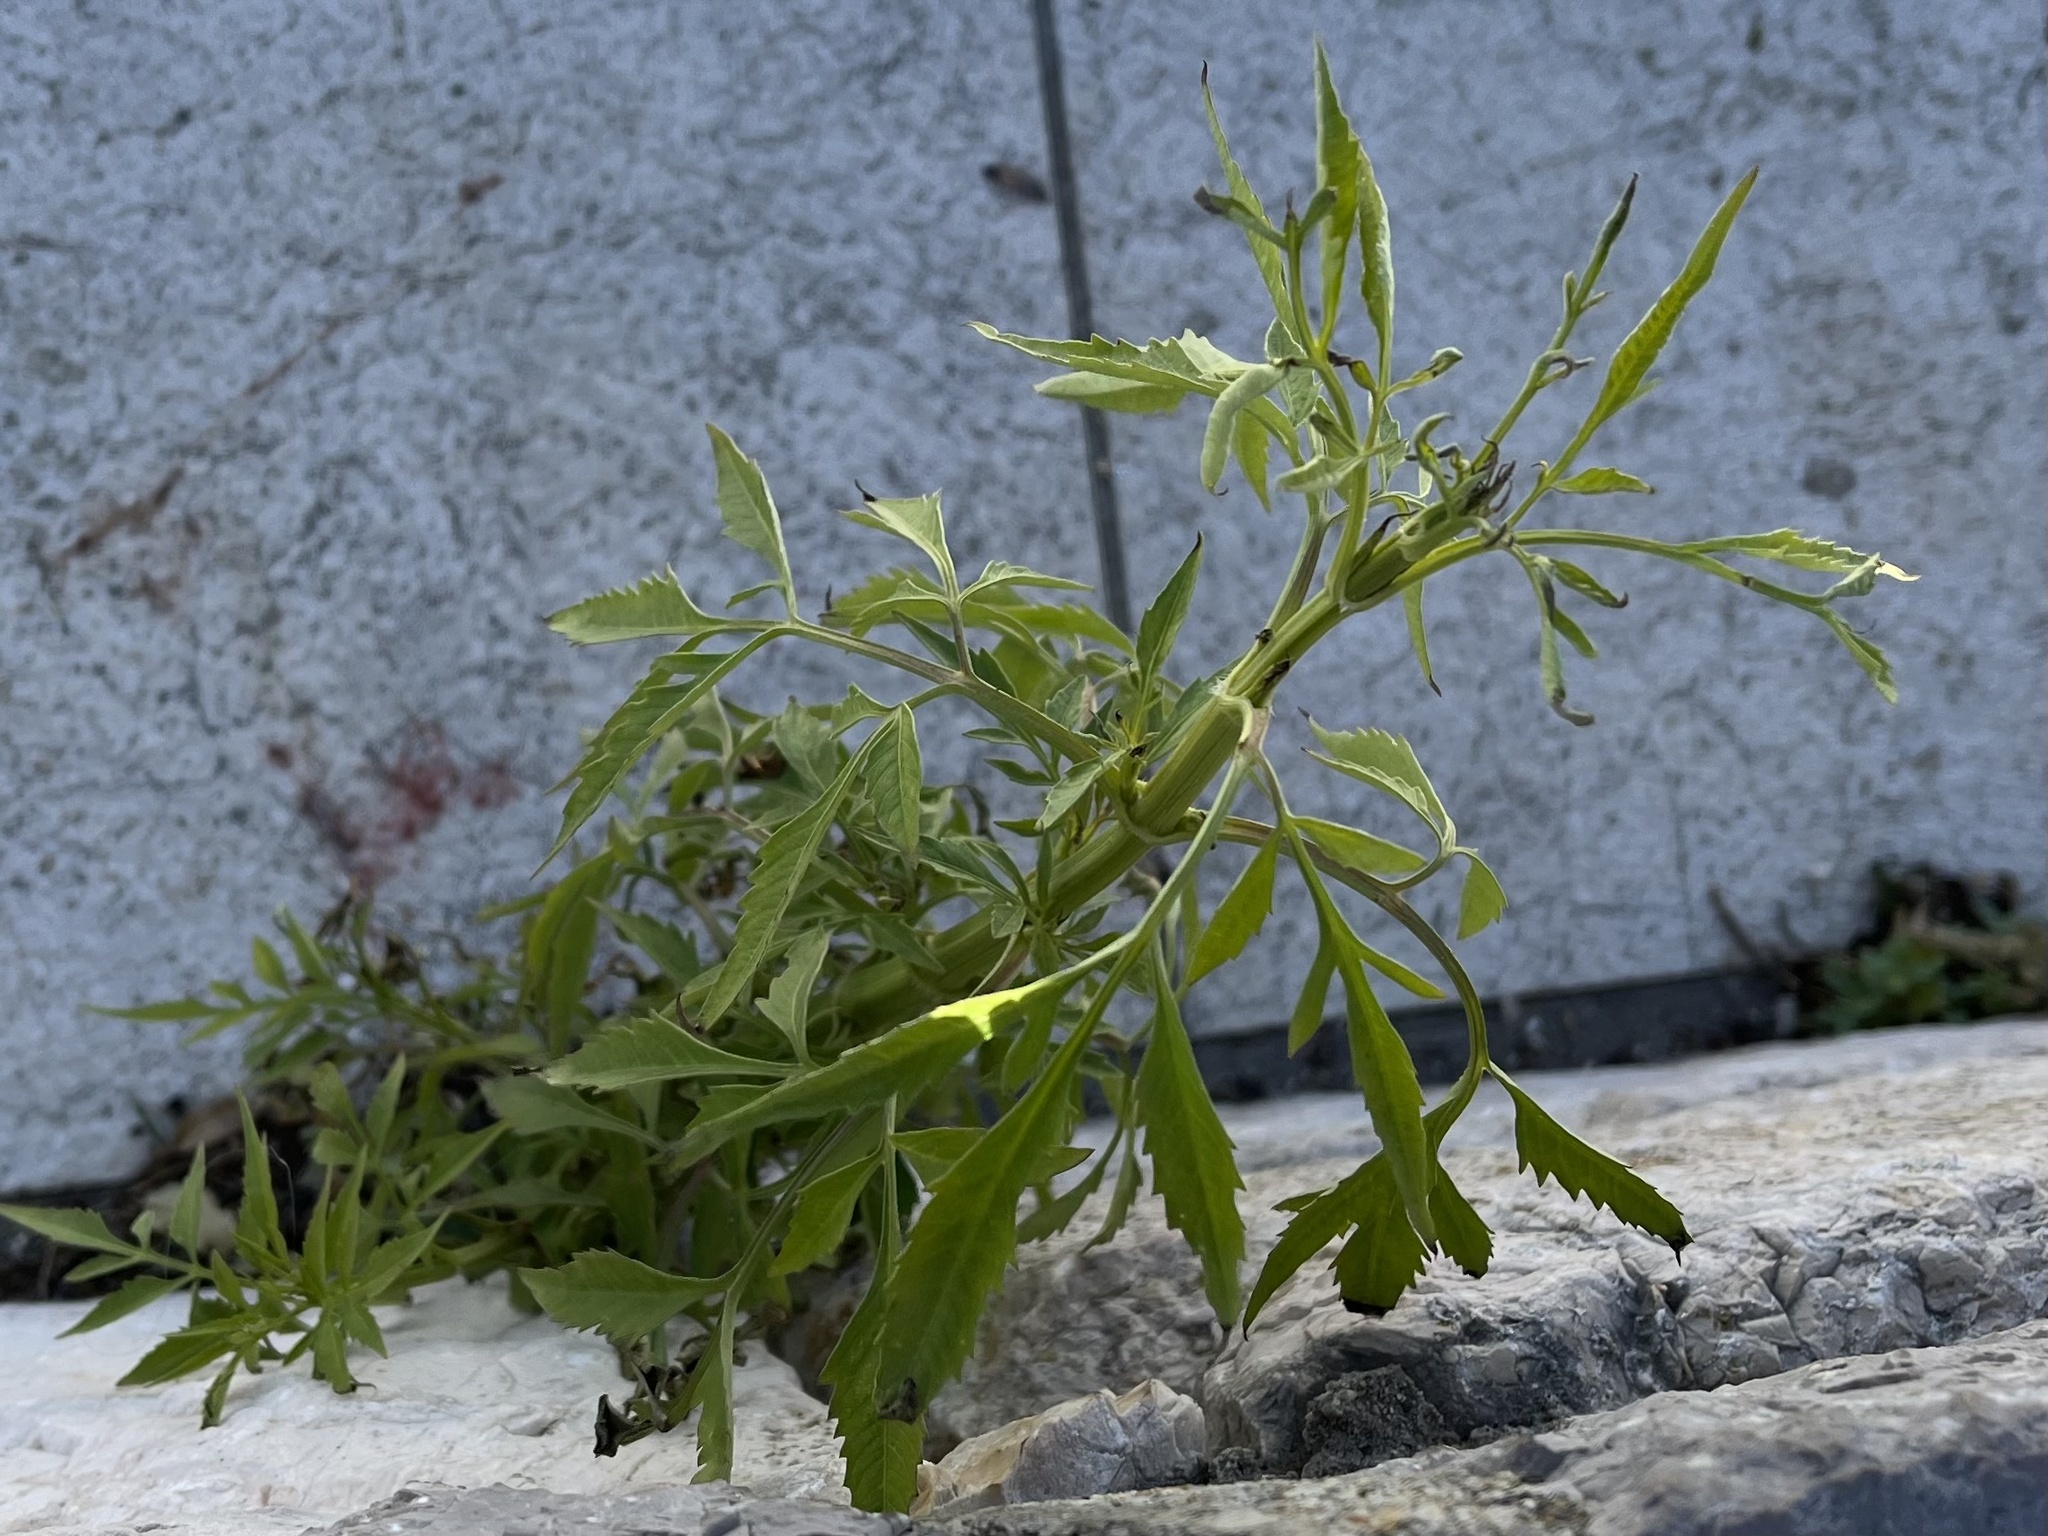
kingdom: Plantae
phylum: Tracheophyta
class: Magnoliopsida
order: Asterales
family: Asteraceae
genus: Bidens
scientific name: Bidens subalternans
